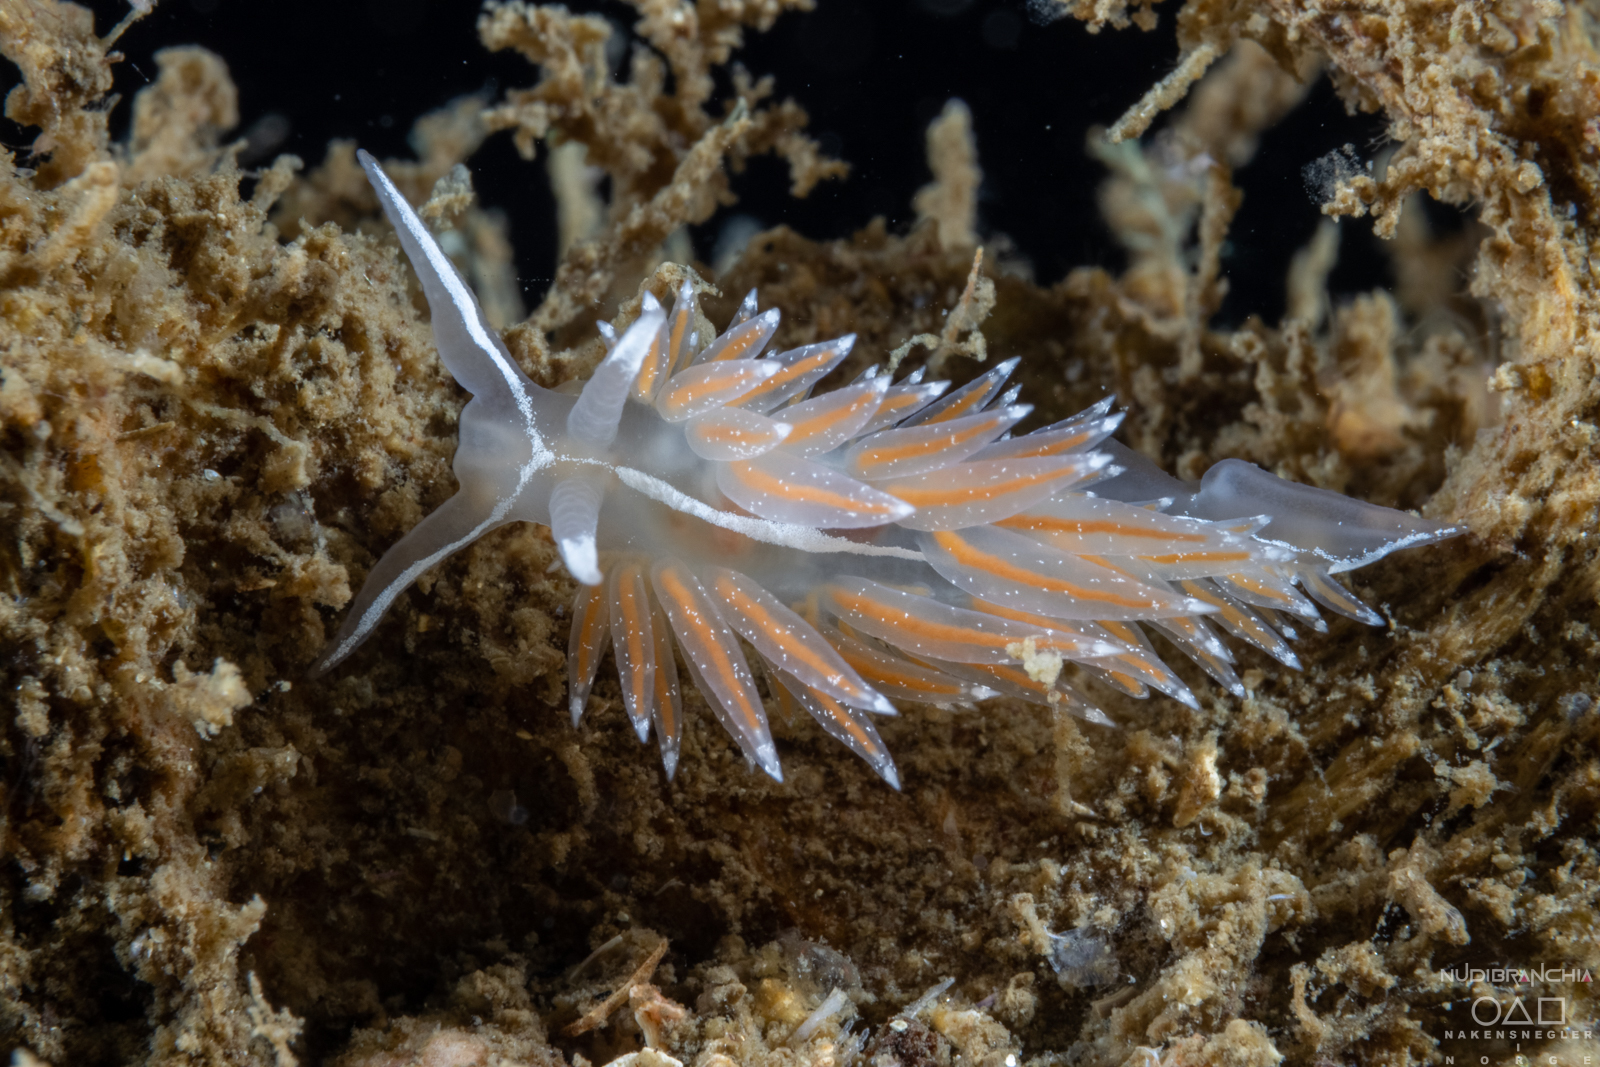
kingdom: Animalia
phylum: Mollusca
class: Gastropoda
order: Nudibranchia
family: Coryphellidae
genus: Coryphella
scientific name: Coryphella monicae
